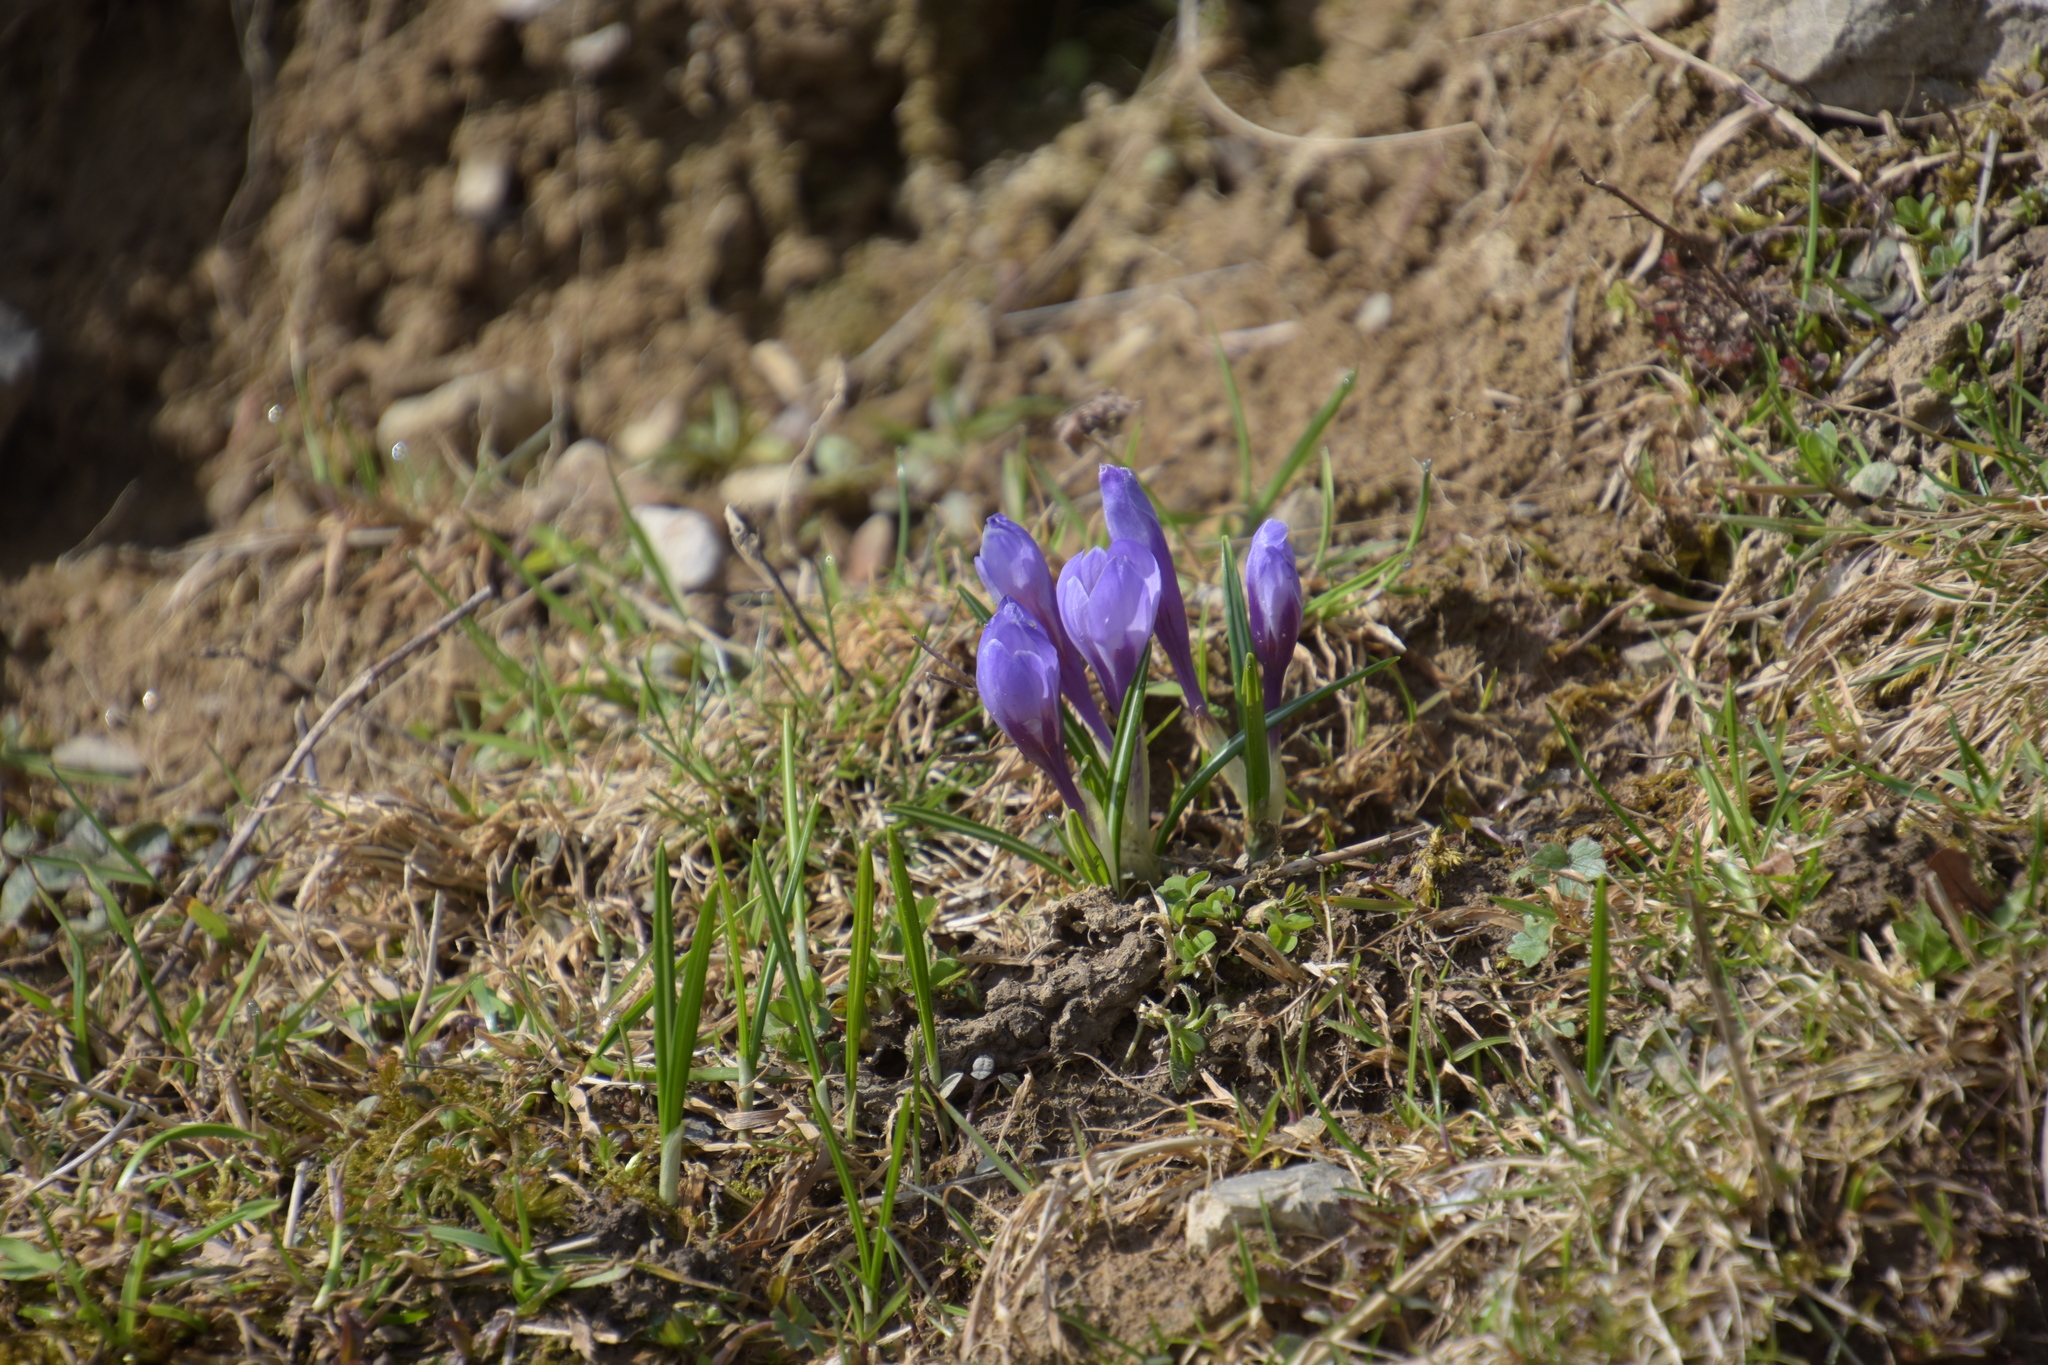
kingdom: Plantae
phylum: Tracheophyta
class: Liliopsida
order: Asparagales
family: Iridaceae
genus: Crocus
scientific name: Crocus vernus
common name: Spring crocus
